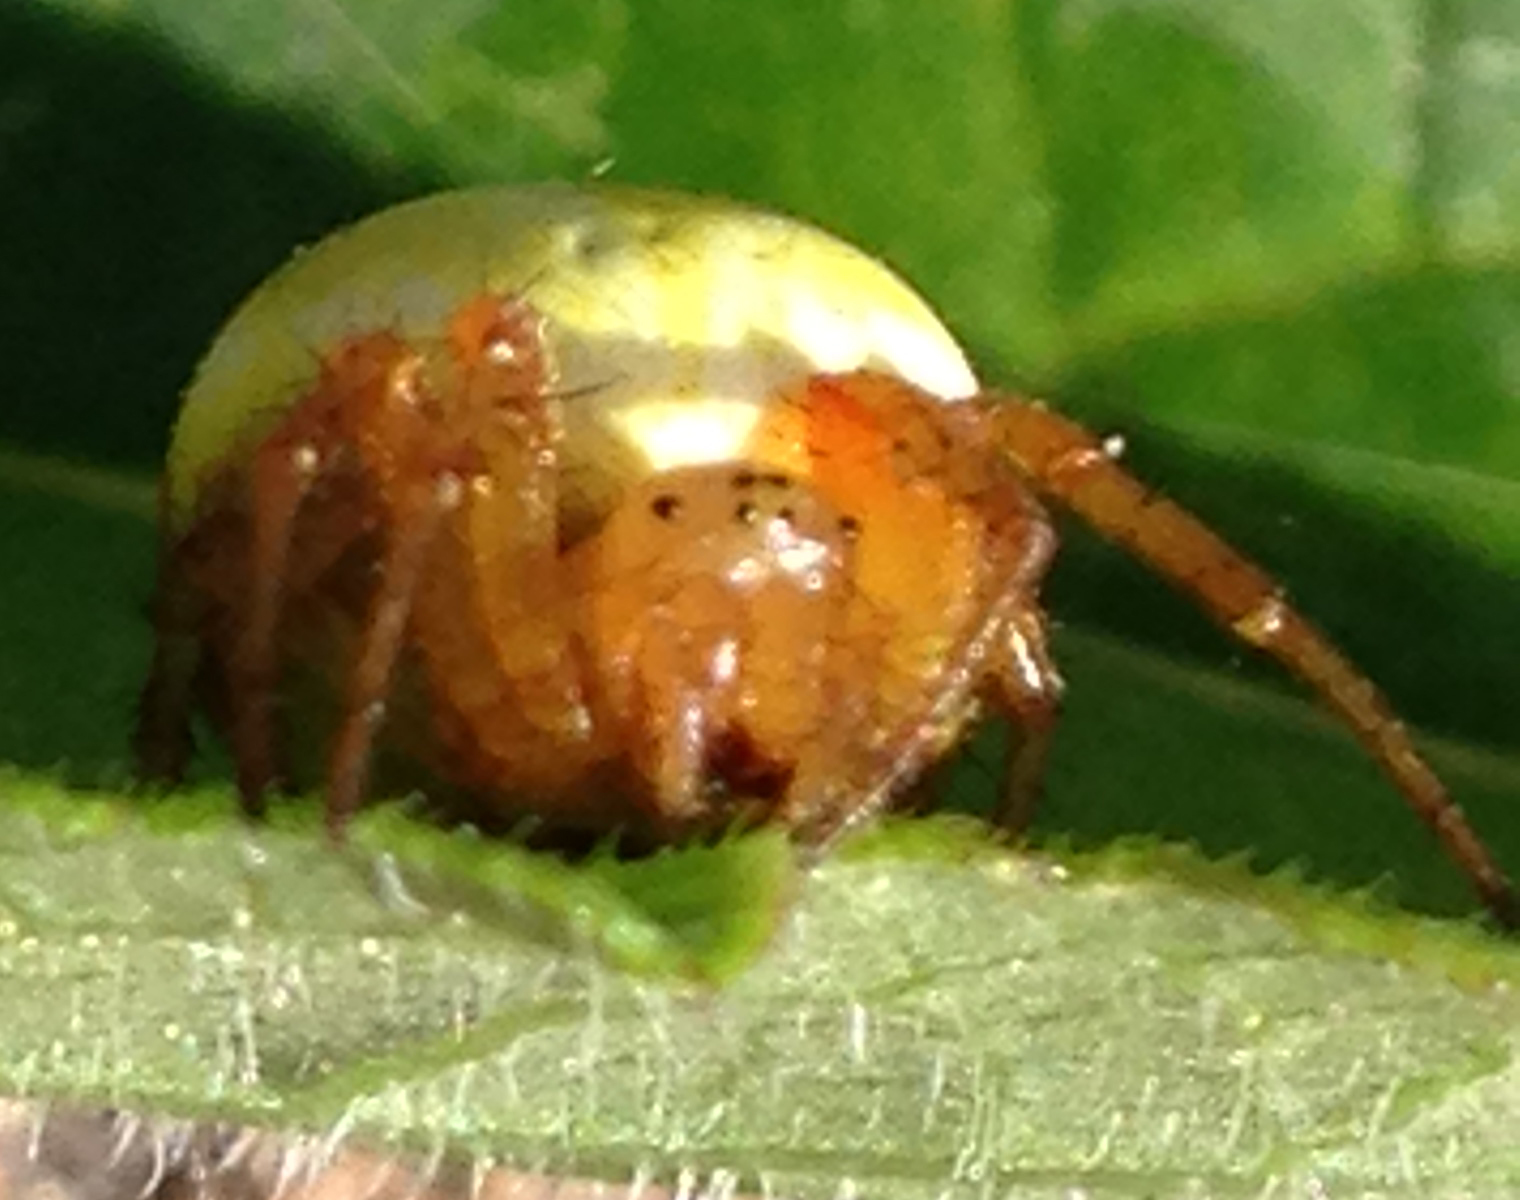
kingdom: Animalia
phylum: Arthropoda
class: Arachnida
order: Araneae
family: Araneidae
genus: Araniella
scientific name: Araniella displicata
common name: Sixspotted orb weaver
